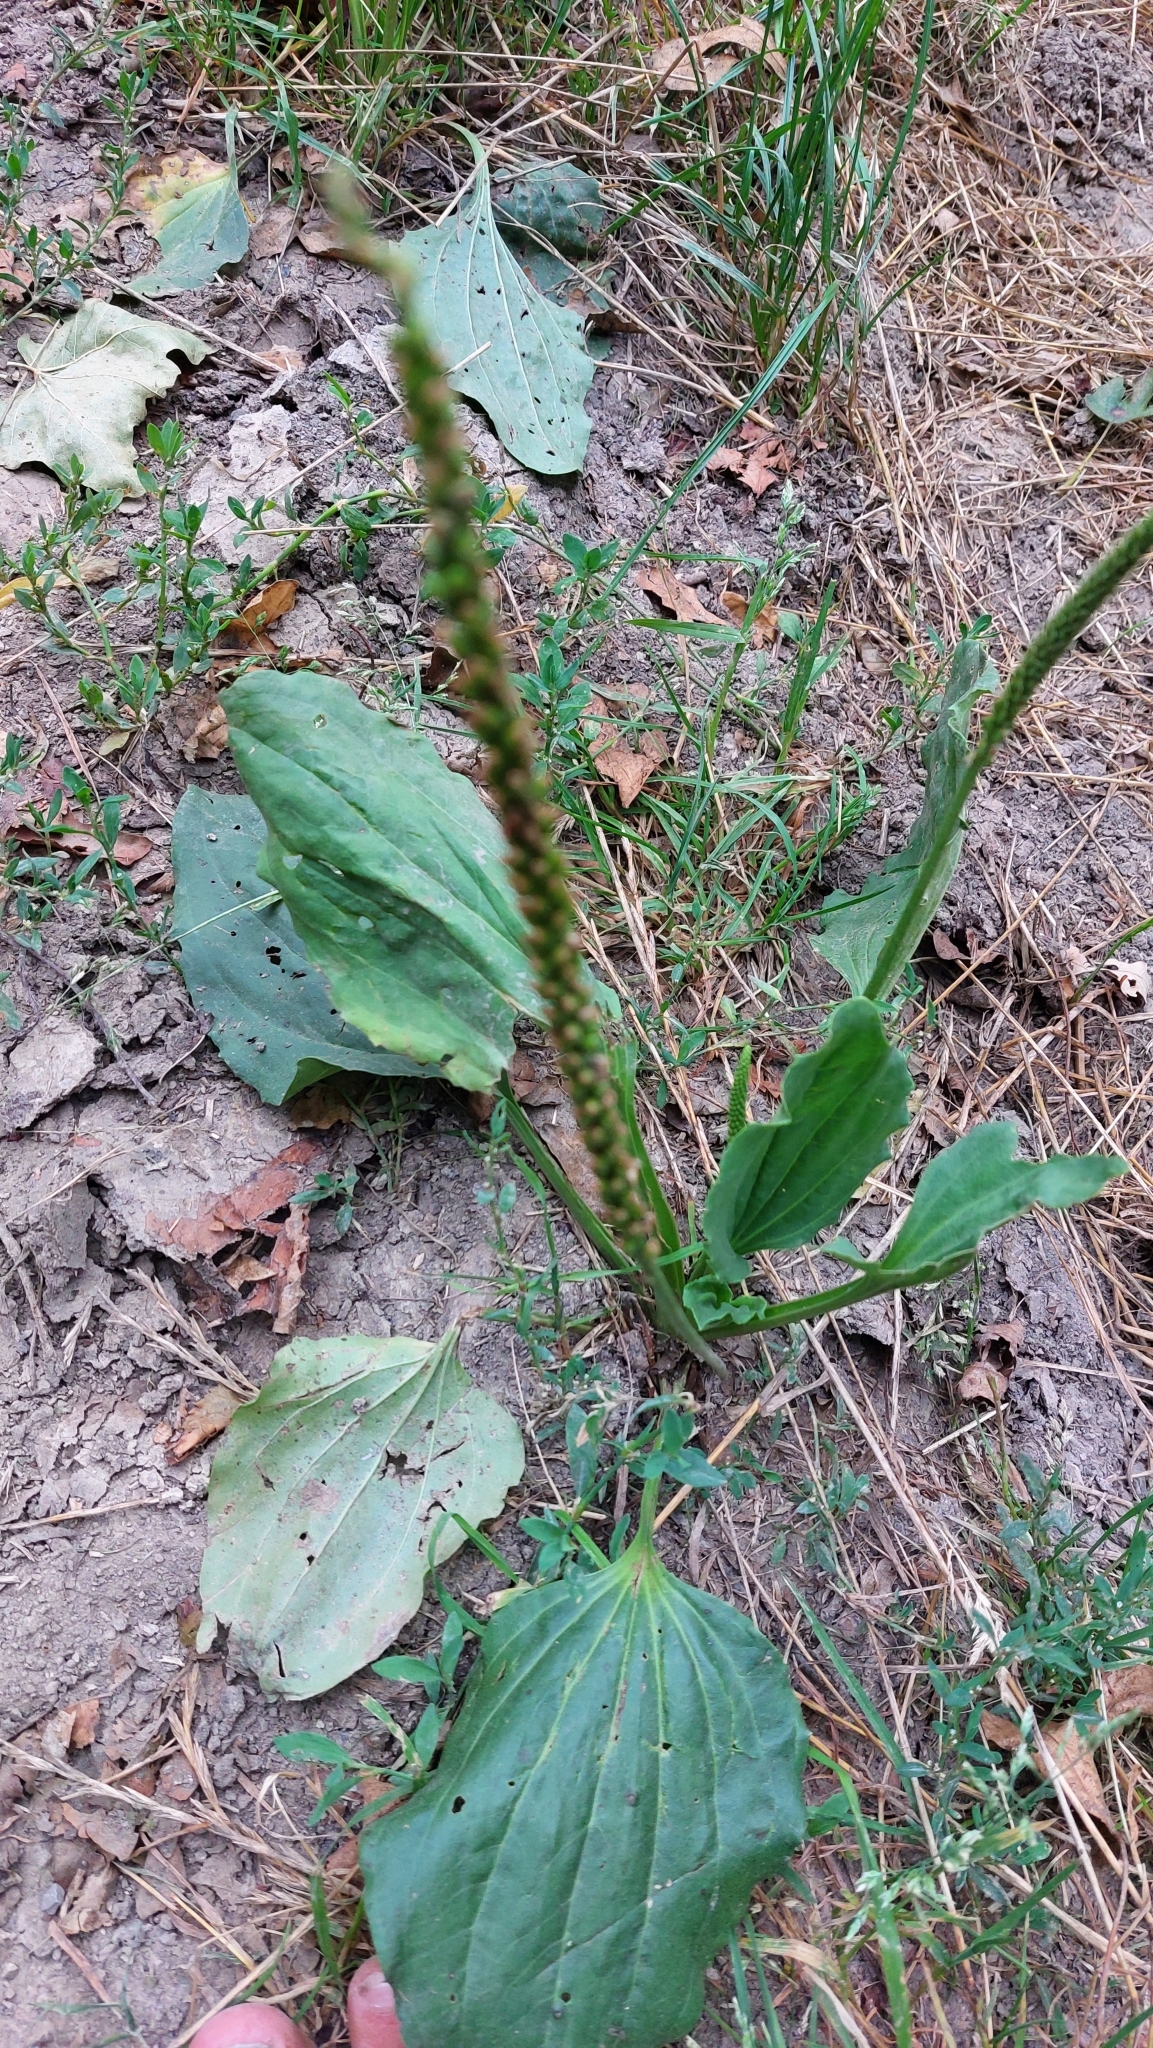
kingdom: Plantae
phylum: Tracheophyta
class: Magnoliopsida
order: Lamiales
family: Plantaginaceae
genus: Plantago
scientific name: Plantago major
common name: Common plantain
